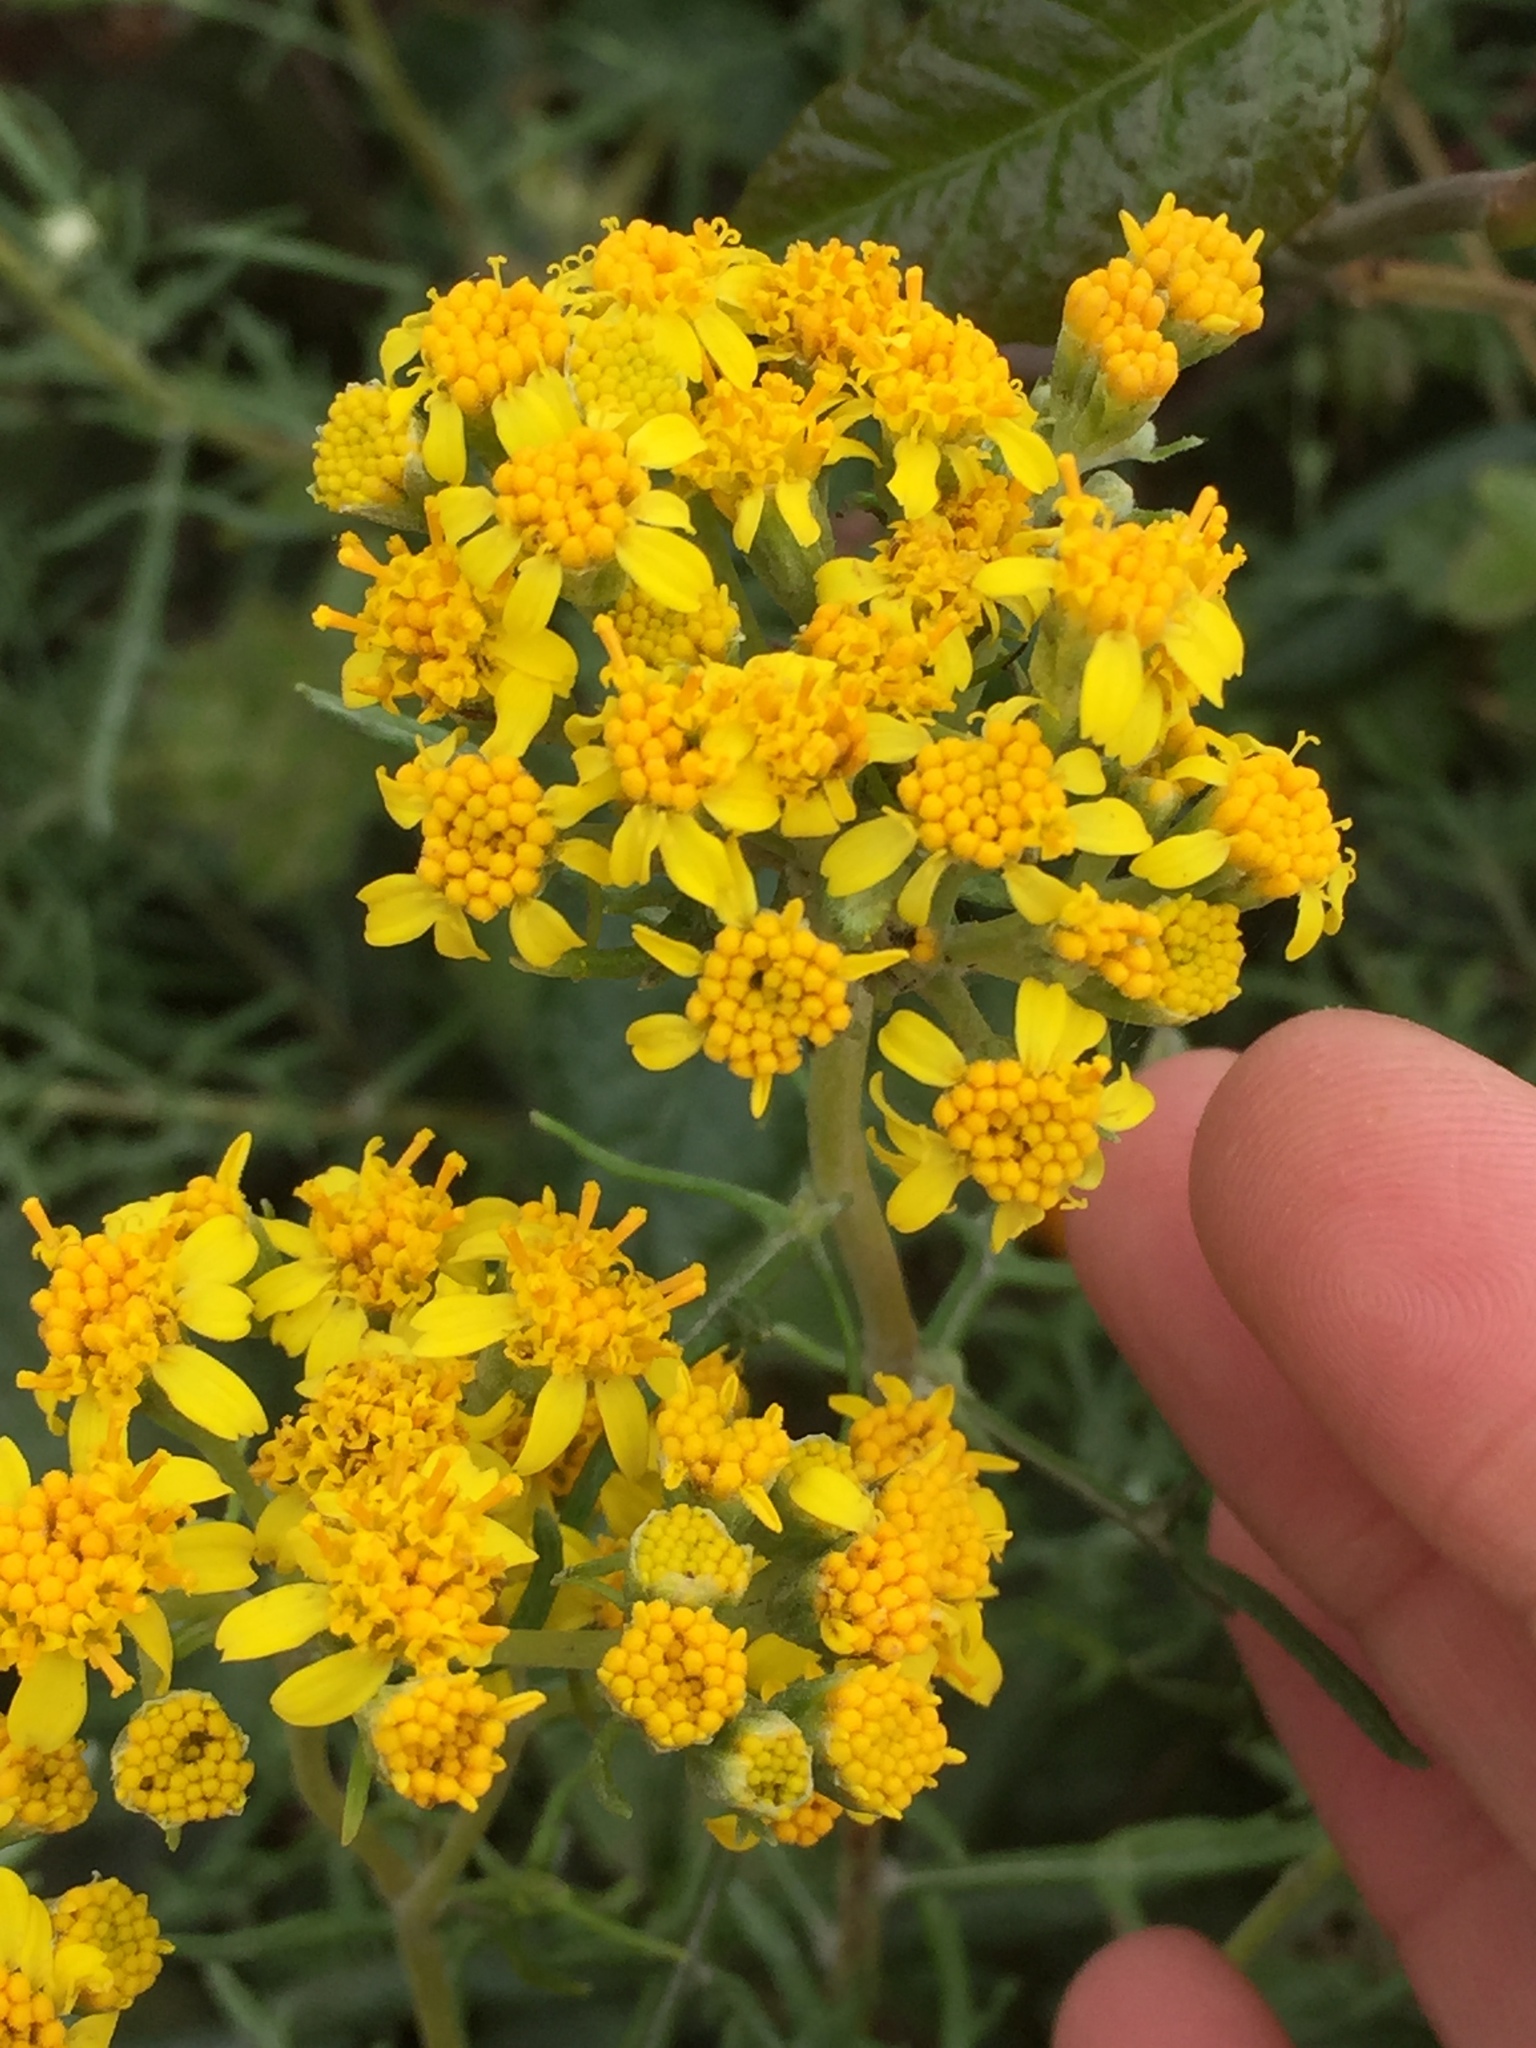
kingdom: Plantae
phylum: Tracheophyta
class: Magnoliopsida
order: Asterales
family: Asteraceae
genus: Eriophyllum
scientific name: Eriophyllum staechadifolium
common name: Lizardtail
